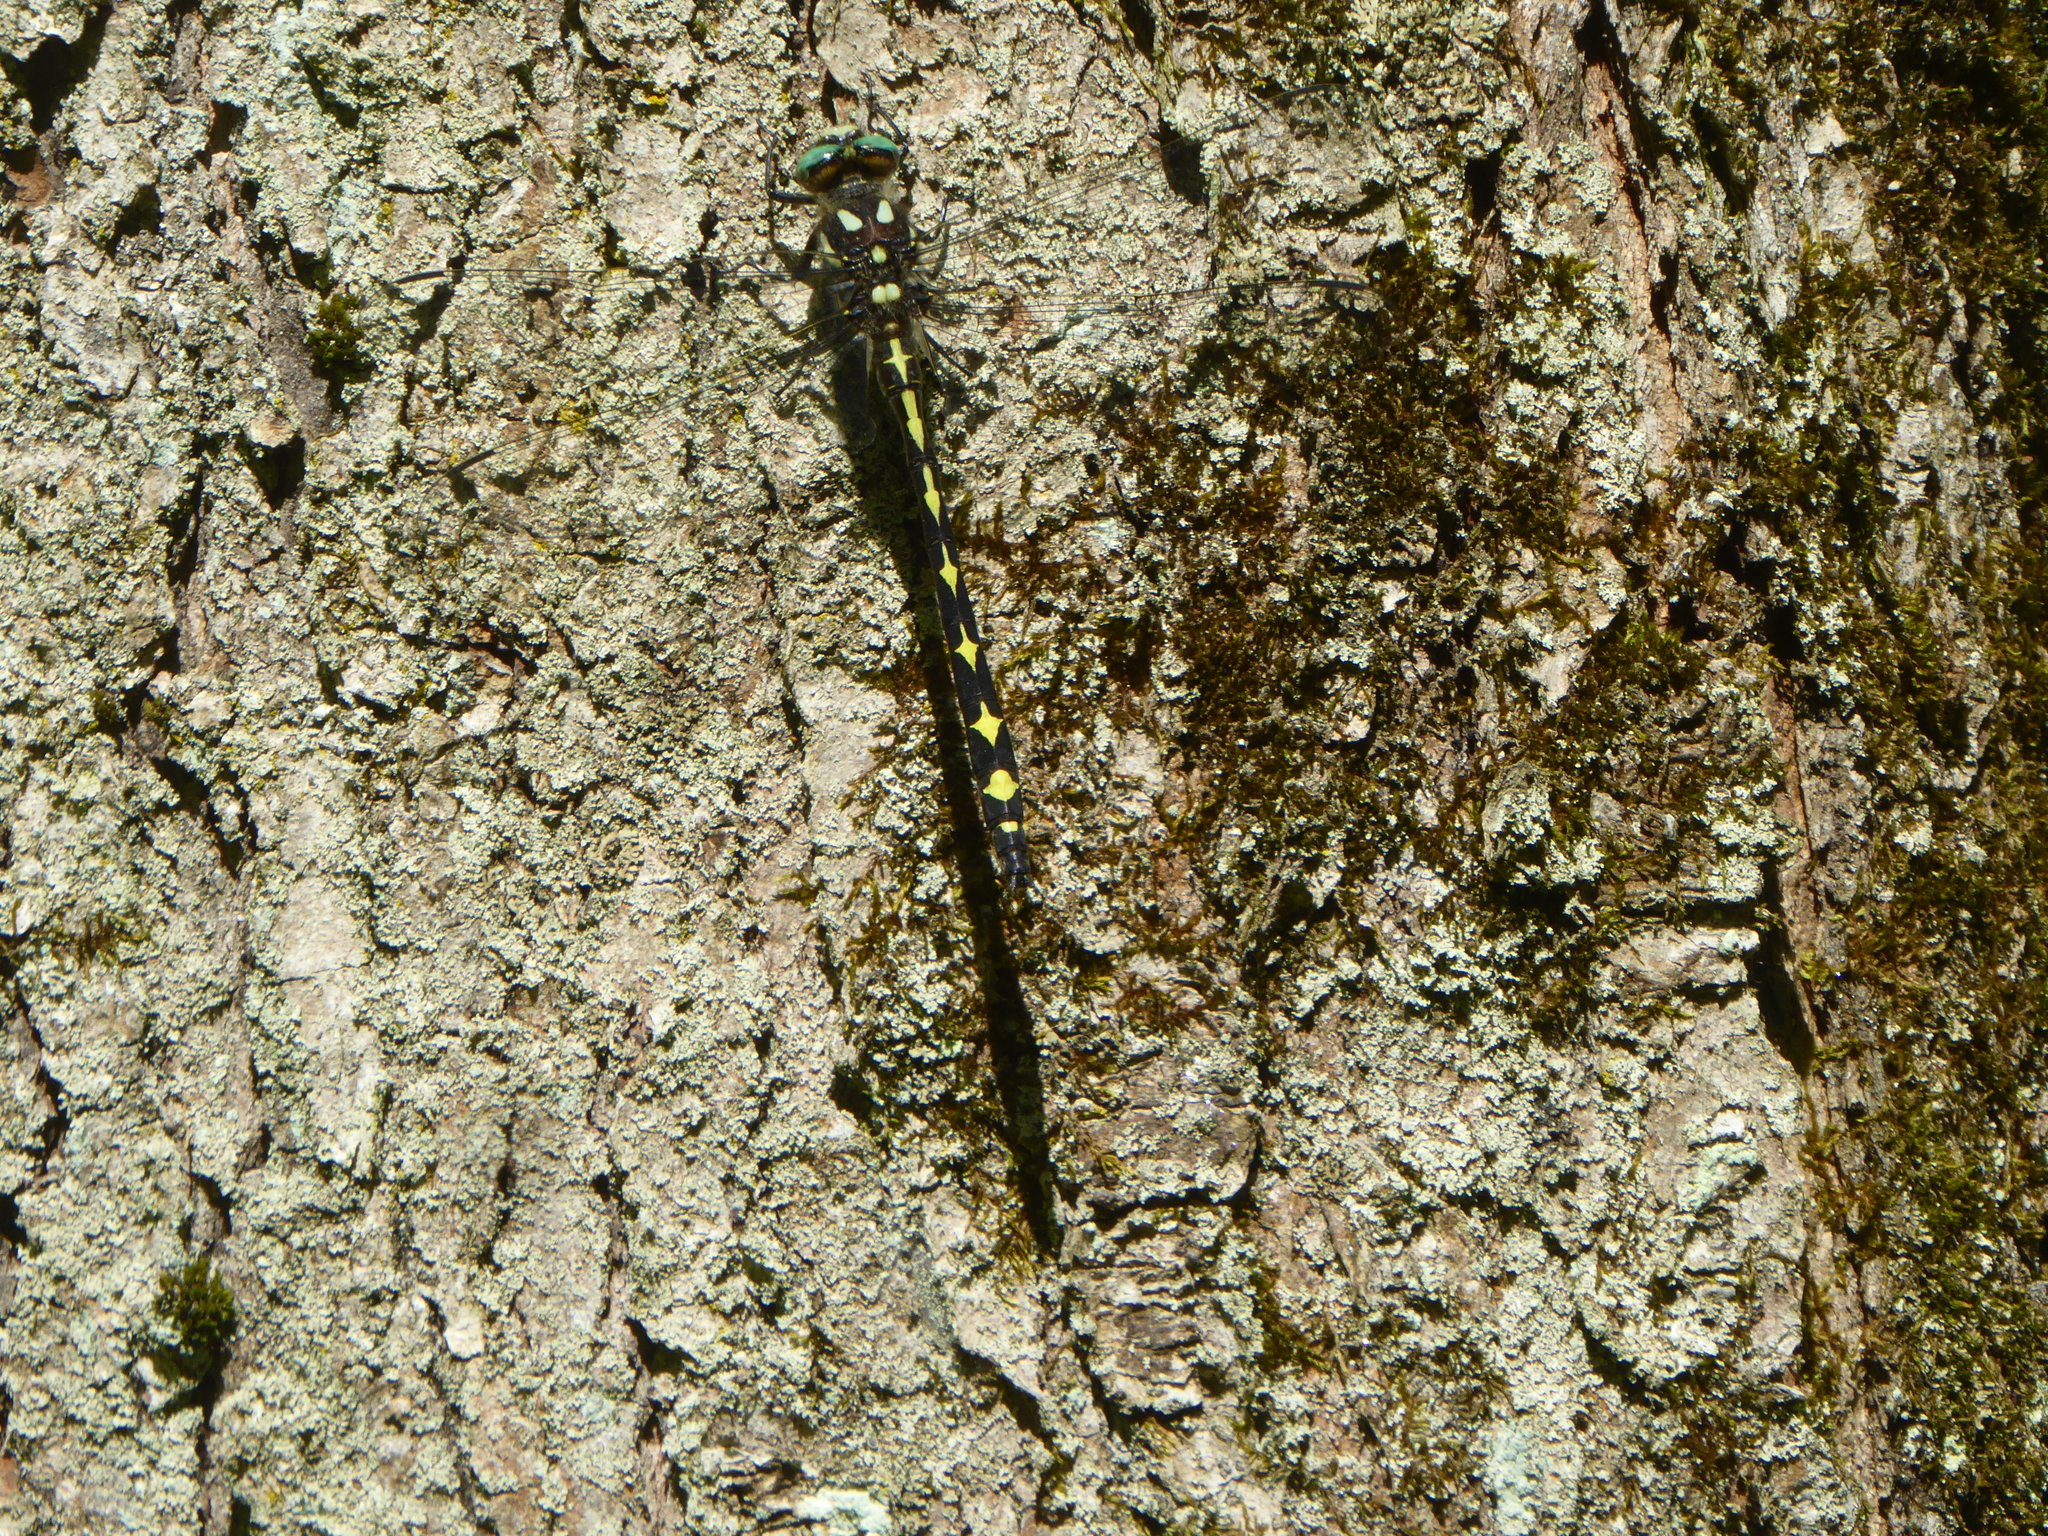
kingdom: Animalia
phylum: Arthropoda
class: Insecta
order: Odonata
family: Cordulegastridae
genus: Cordulegaster
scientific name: Cordulegaster obliqua
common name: Arrowhead spiketail
